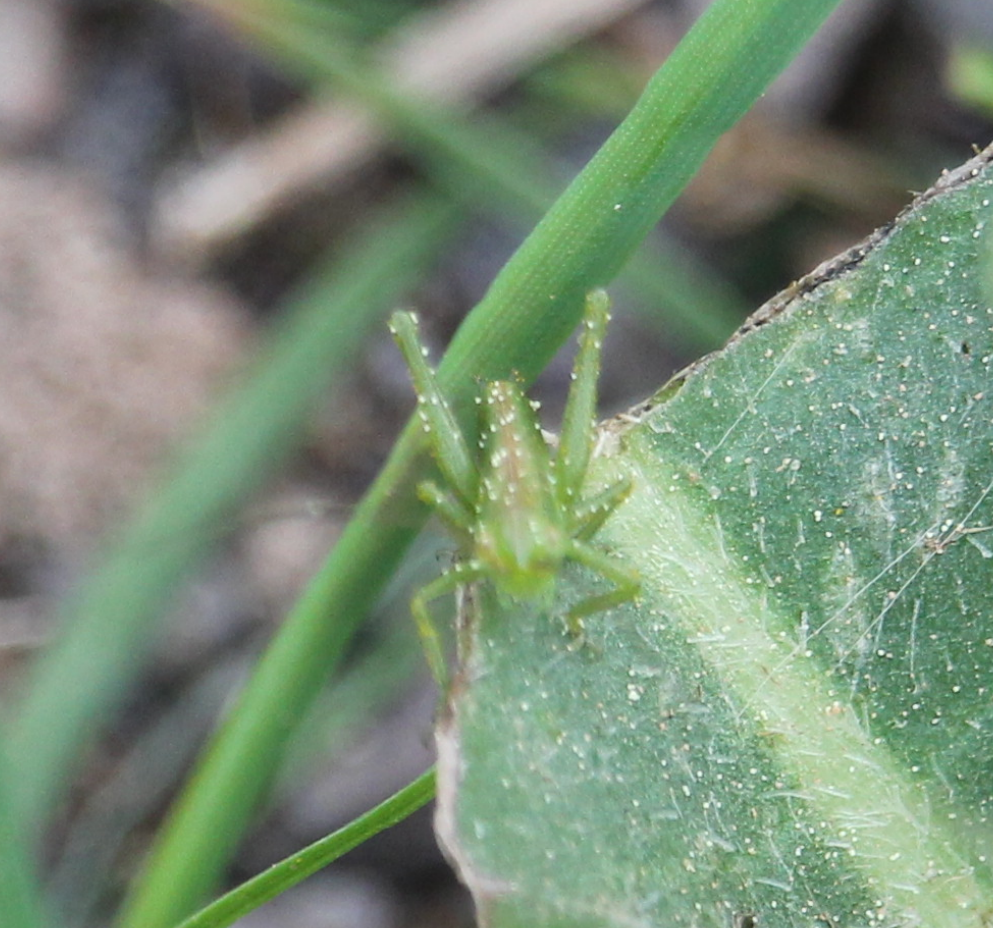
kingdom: Animalia
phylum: Arthropoda
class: Insecta
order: Orthoptera
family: Tettigoniidae
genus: Tettigonia
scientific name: Tettigonia viridissima
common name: Great green bush-cricket
